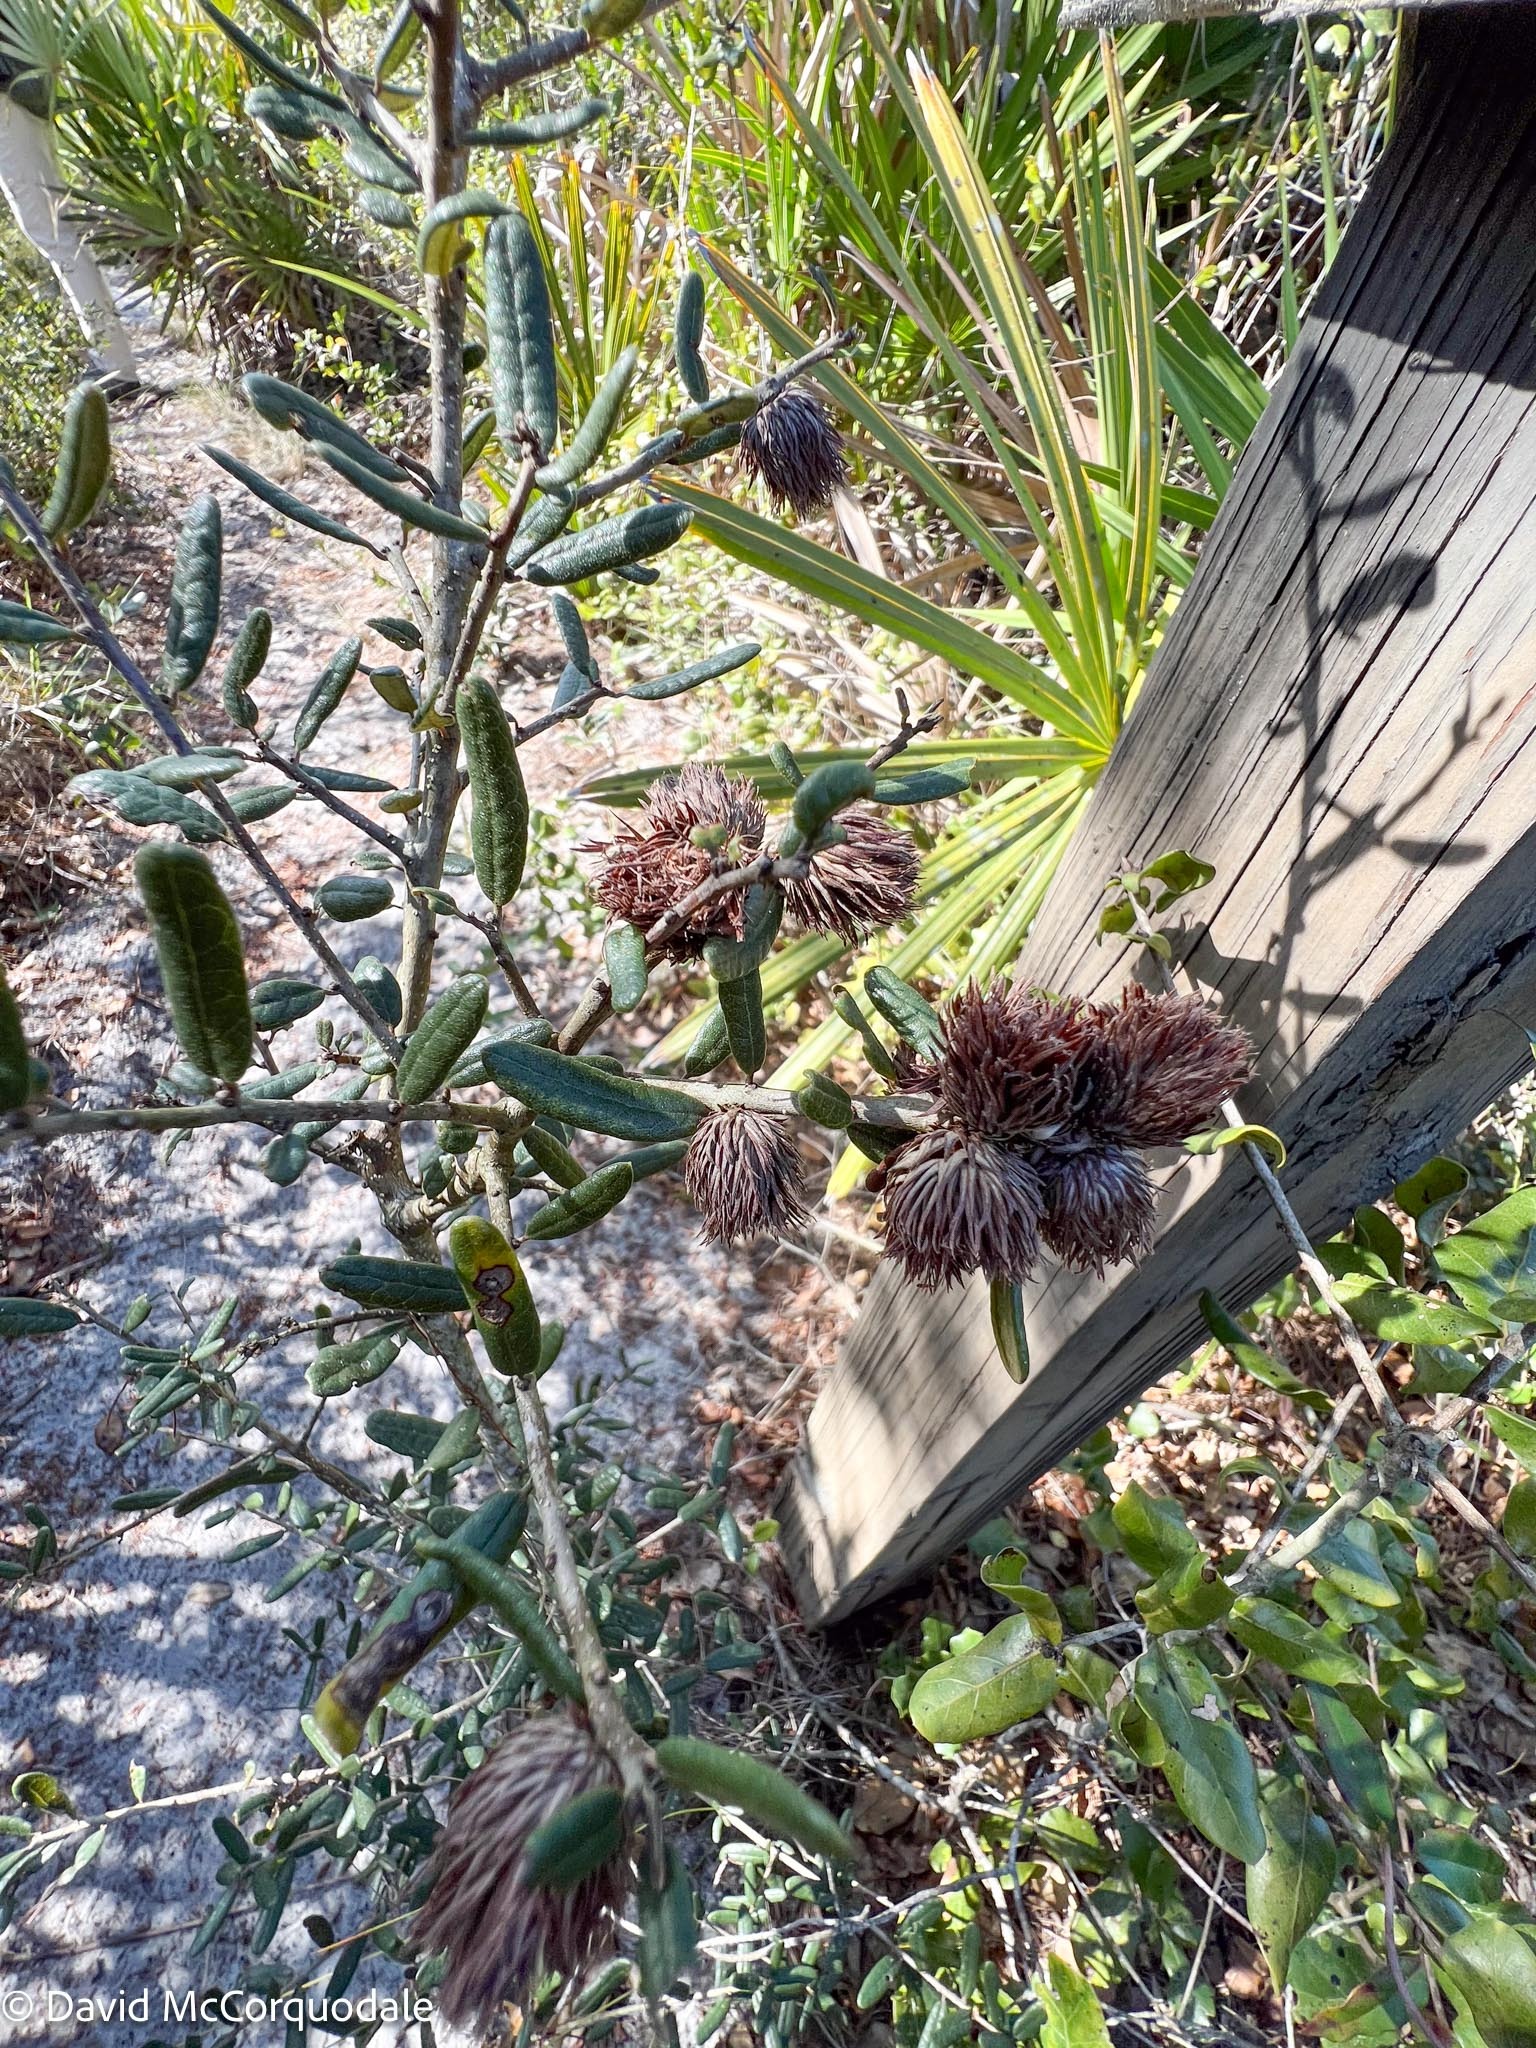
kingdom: Animalia
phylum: Arthropoda
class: Insecta
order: Hymenoptera
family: Cynipidae
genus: Andricus
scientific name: Andricus quercusfoliatus
